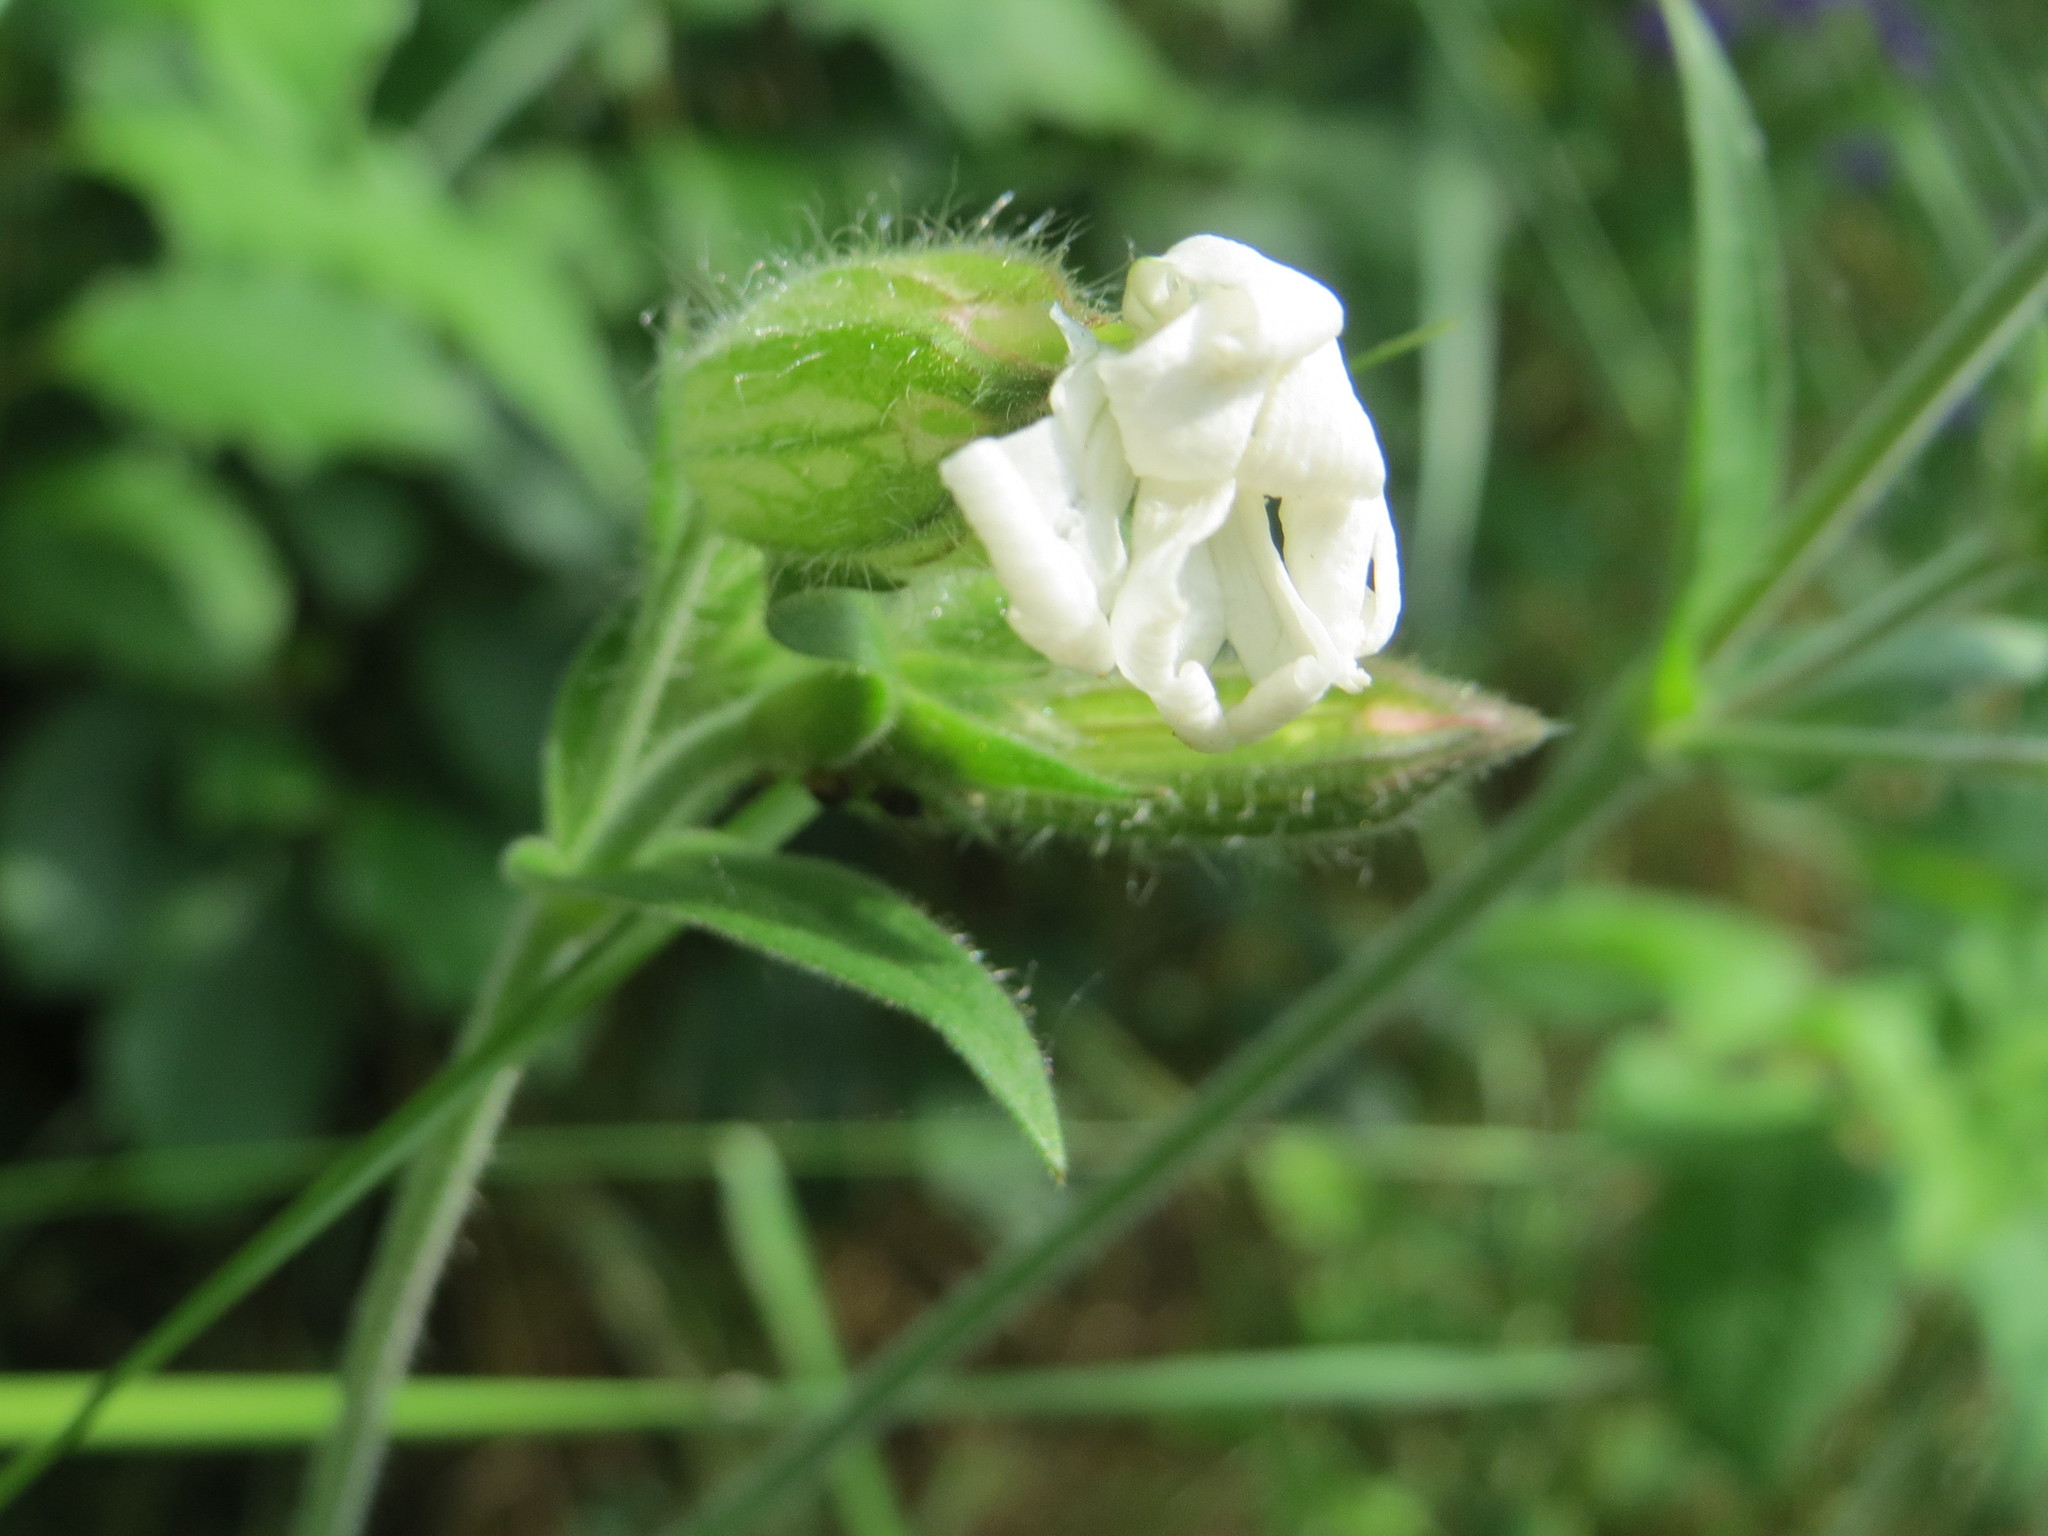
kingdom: Plantae
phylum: Tracheophyta
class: Magnoliopsida
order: Caryophyllales
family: Caryophyllaceae
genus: Silene
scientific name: Silene latifolia
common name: White campion
